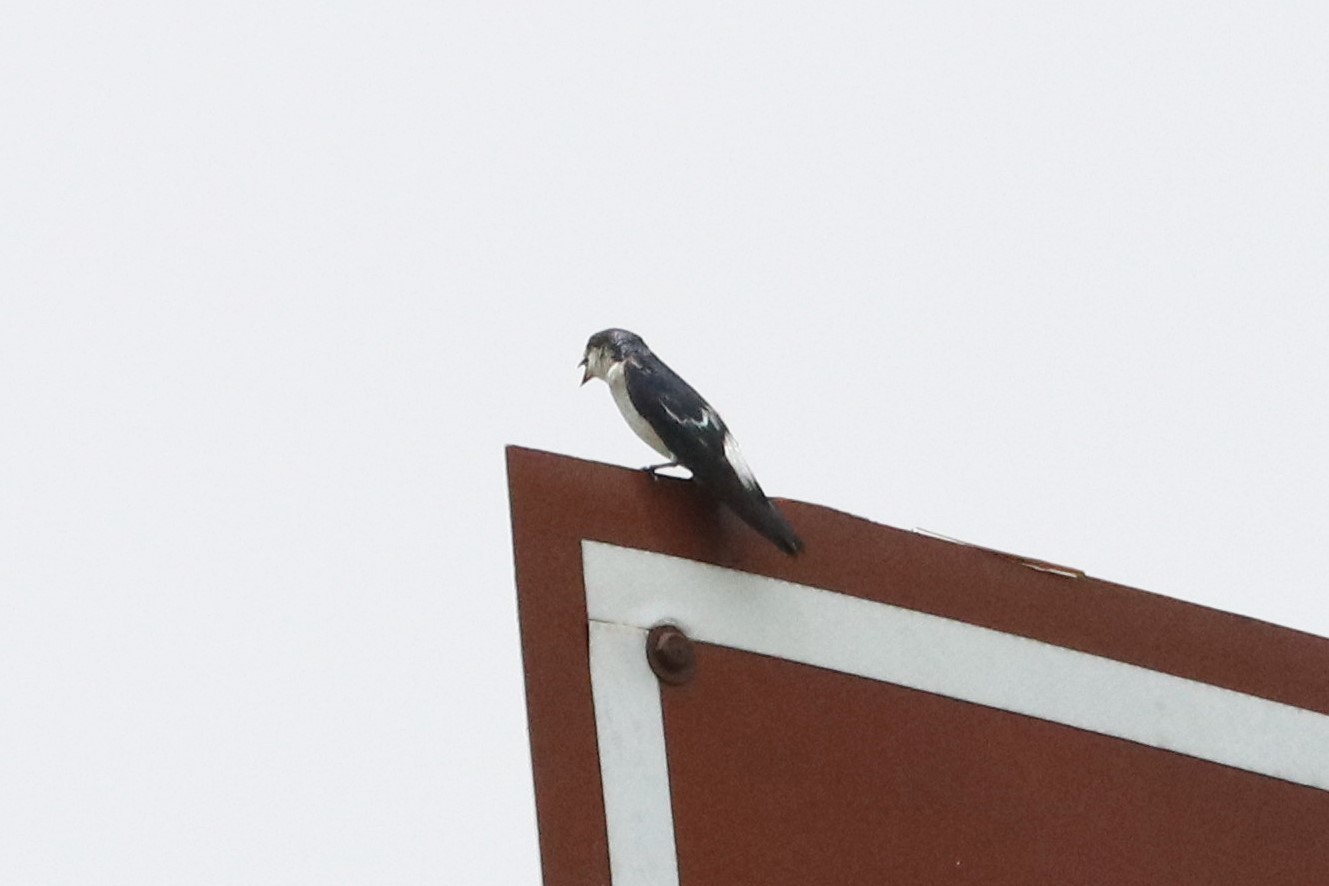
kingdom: Animalia
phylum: Chordata
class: Aves
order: Passeriformes
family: Hirundinidae
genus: Tachycineta
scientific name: Tachycineta albiventer
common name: White-winged swallow
